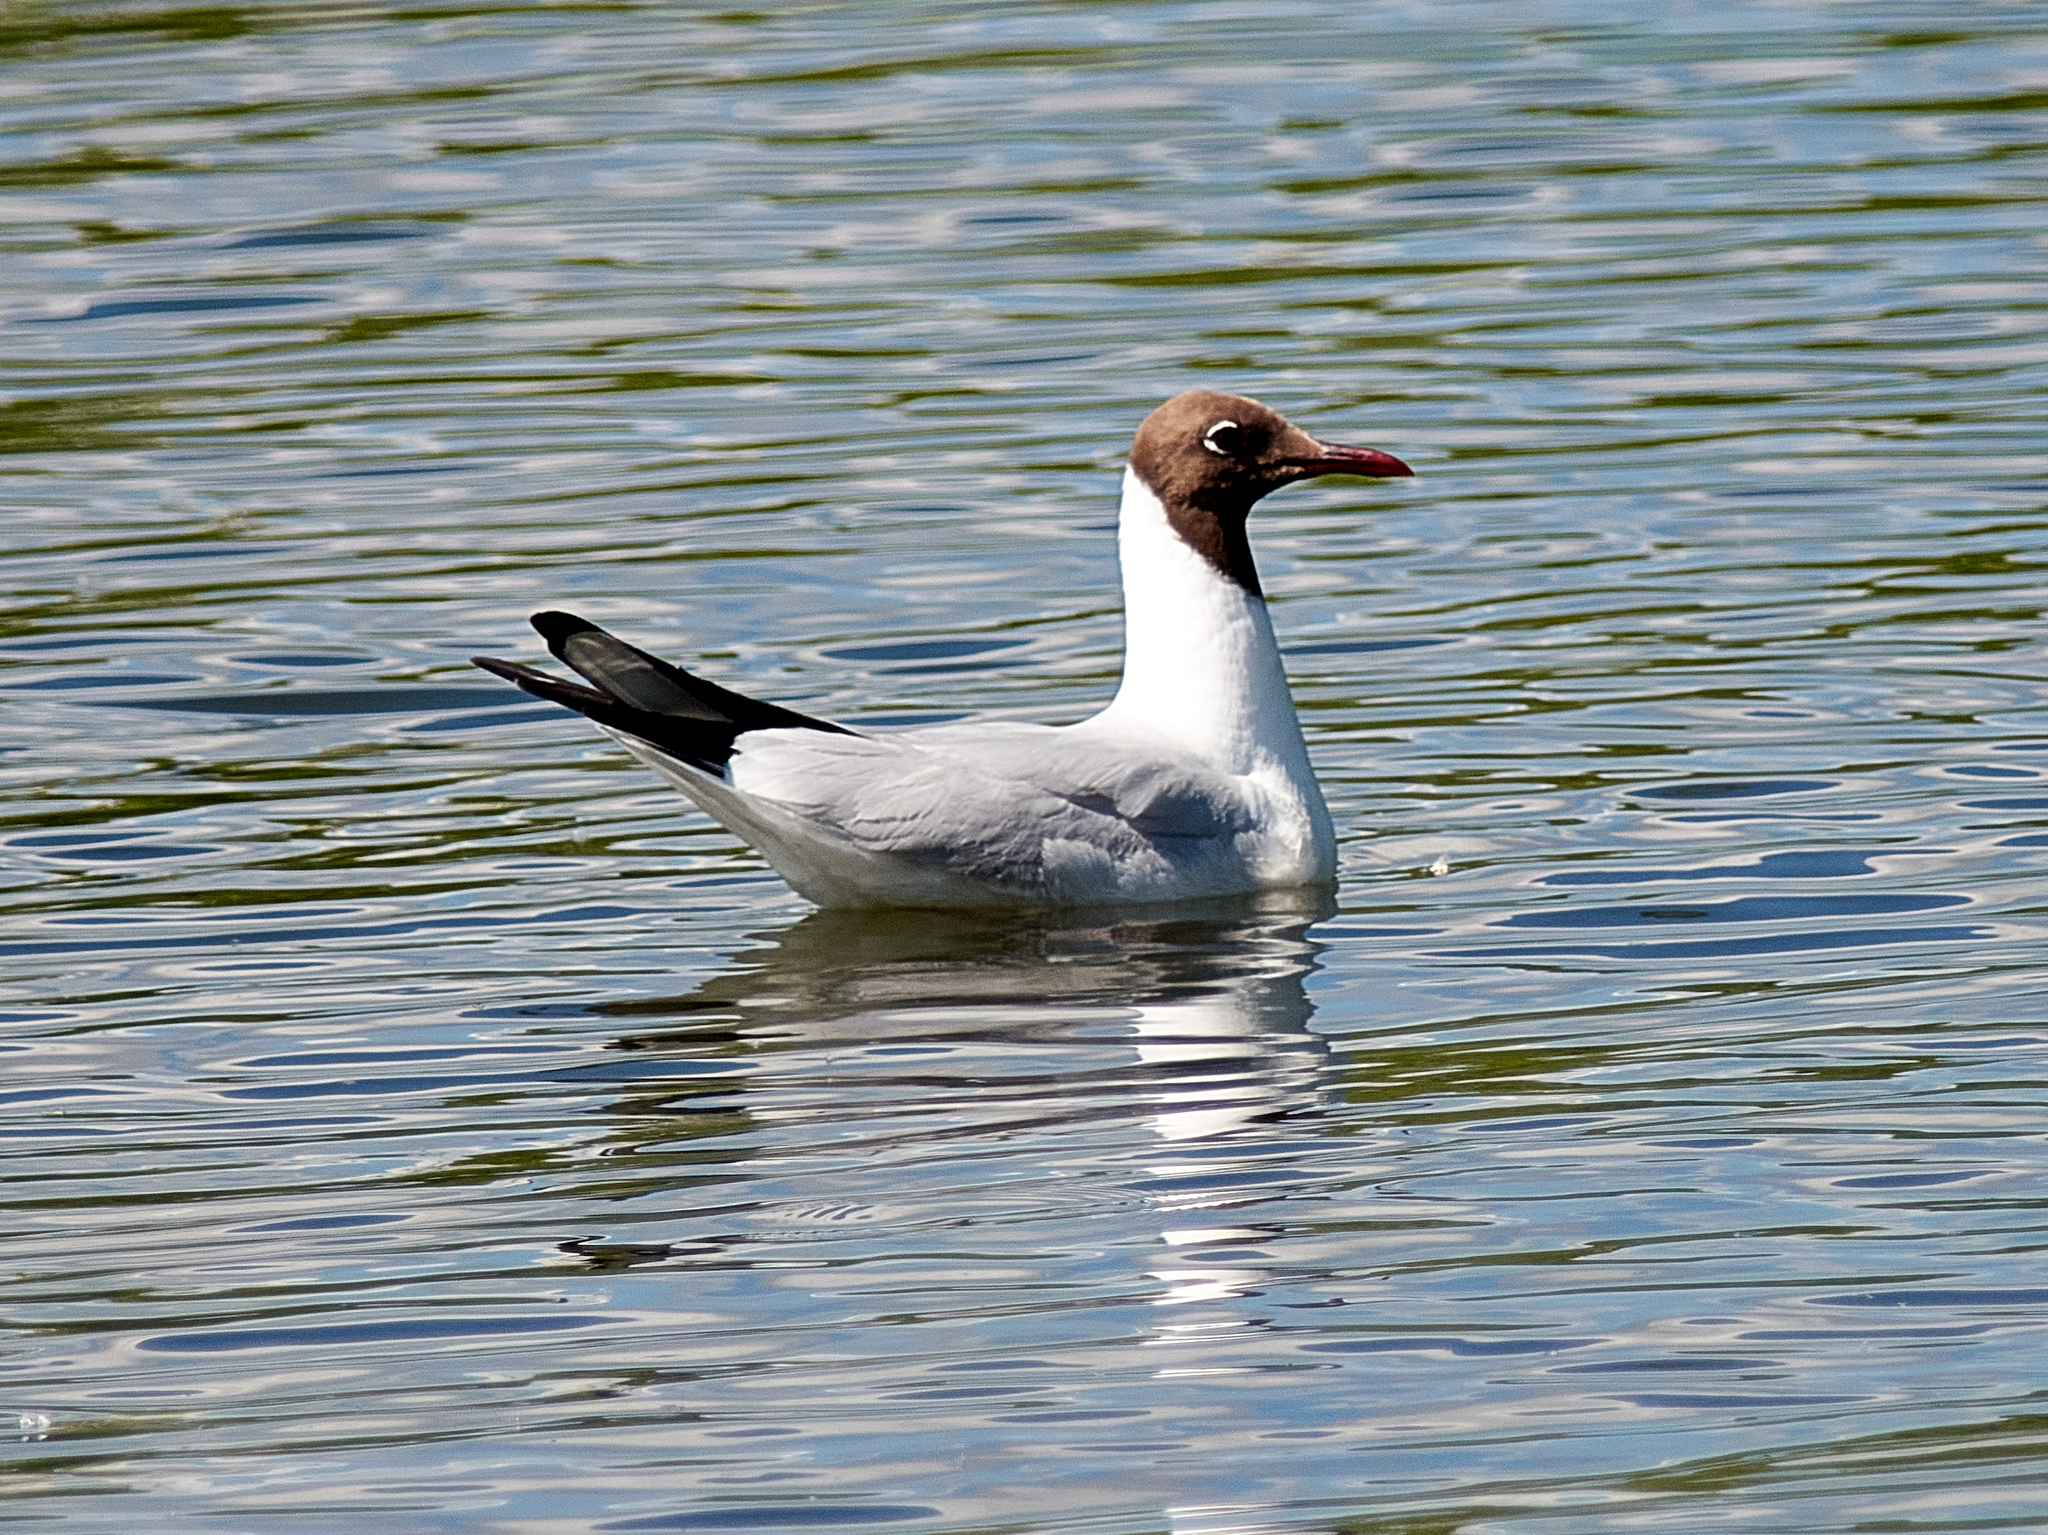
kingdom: Animalia
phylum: Chordata
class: Aves
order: Charadriiformes
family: Laridae
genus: Chroicocephalus
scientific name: Chroicocephalus ridibundus
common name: Black-headed gull
